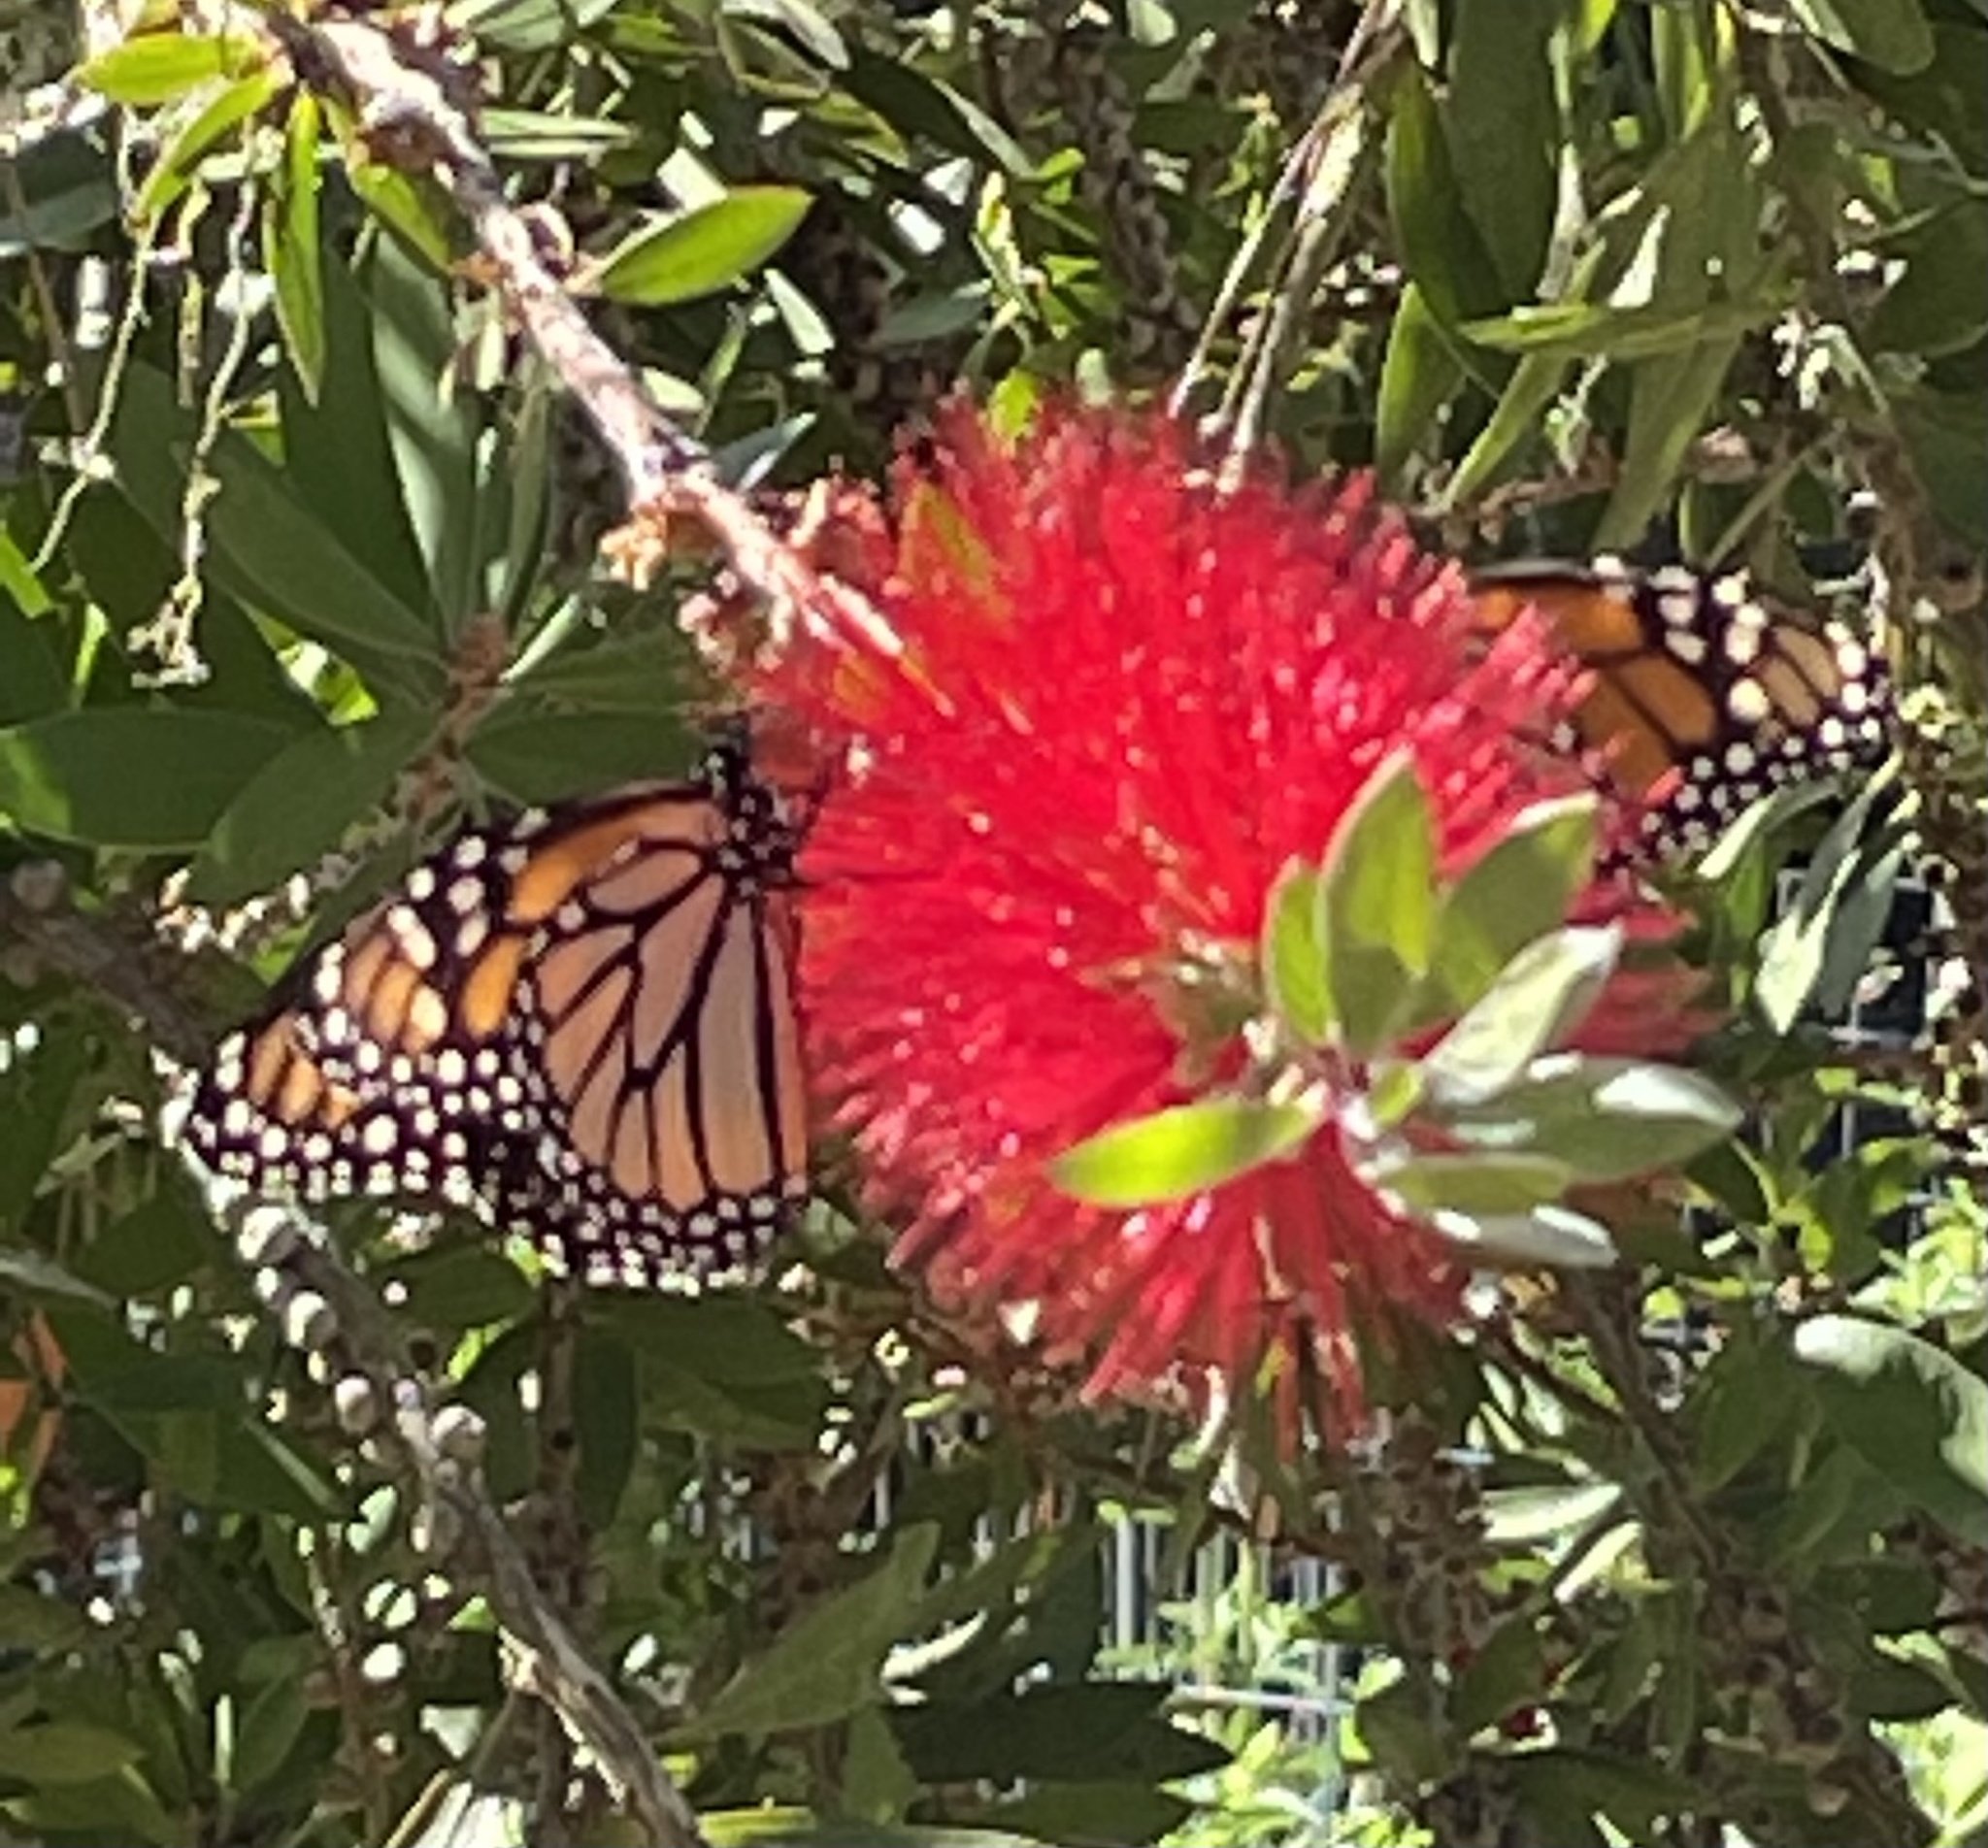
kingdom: Animalia
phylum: Arthropoda
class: Insecta
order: Lepidoptera
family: Nymphalidae
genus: Danaus
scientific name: Danaus plexippus
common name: Monarch
